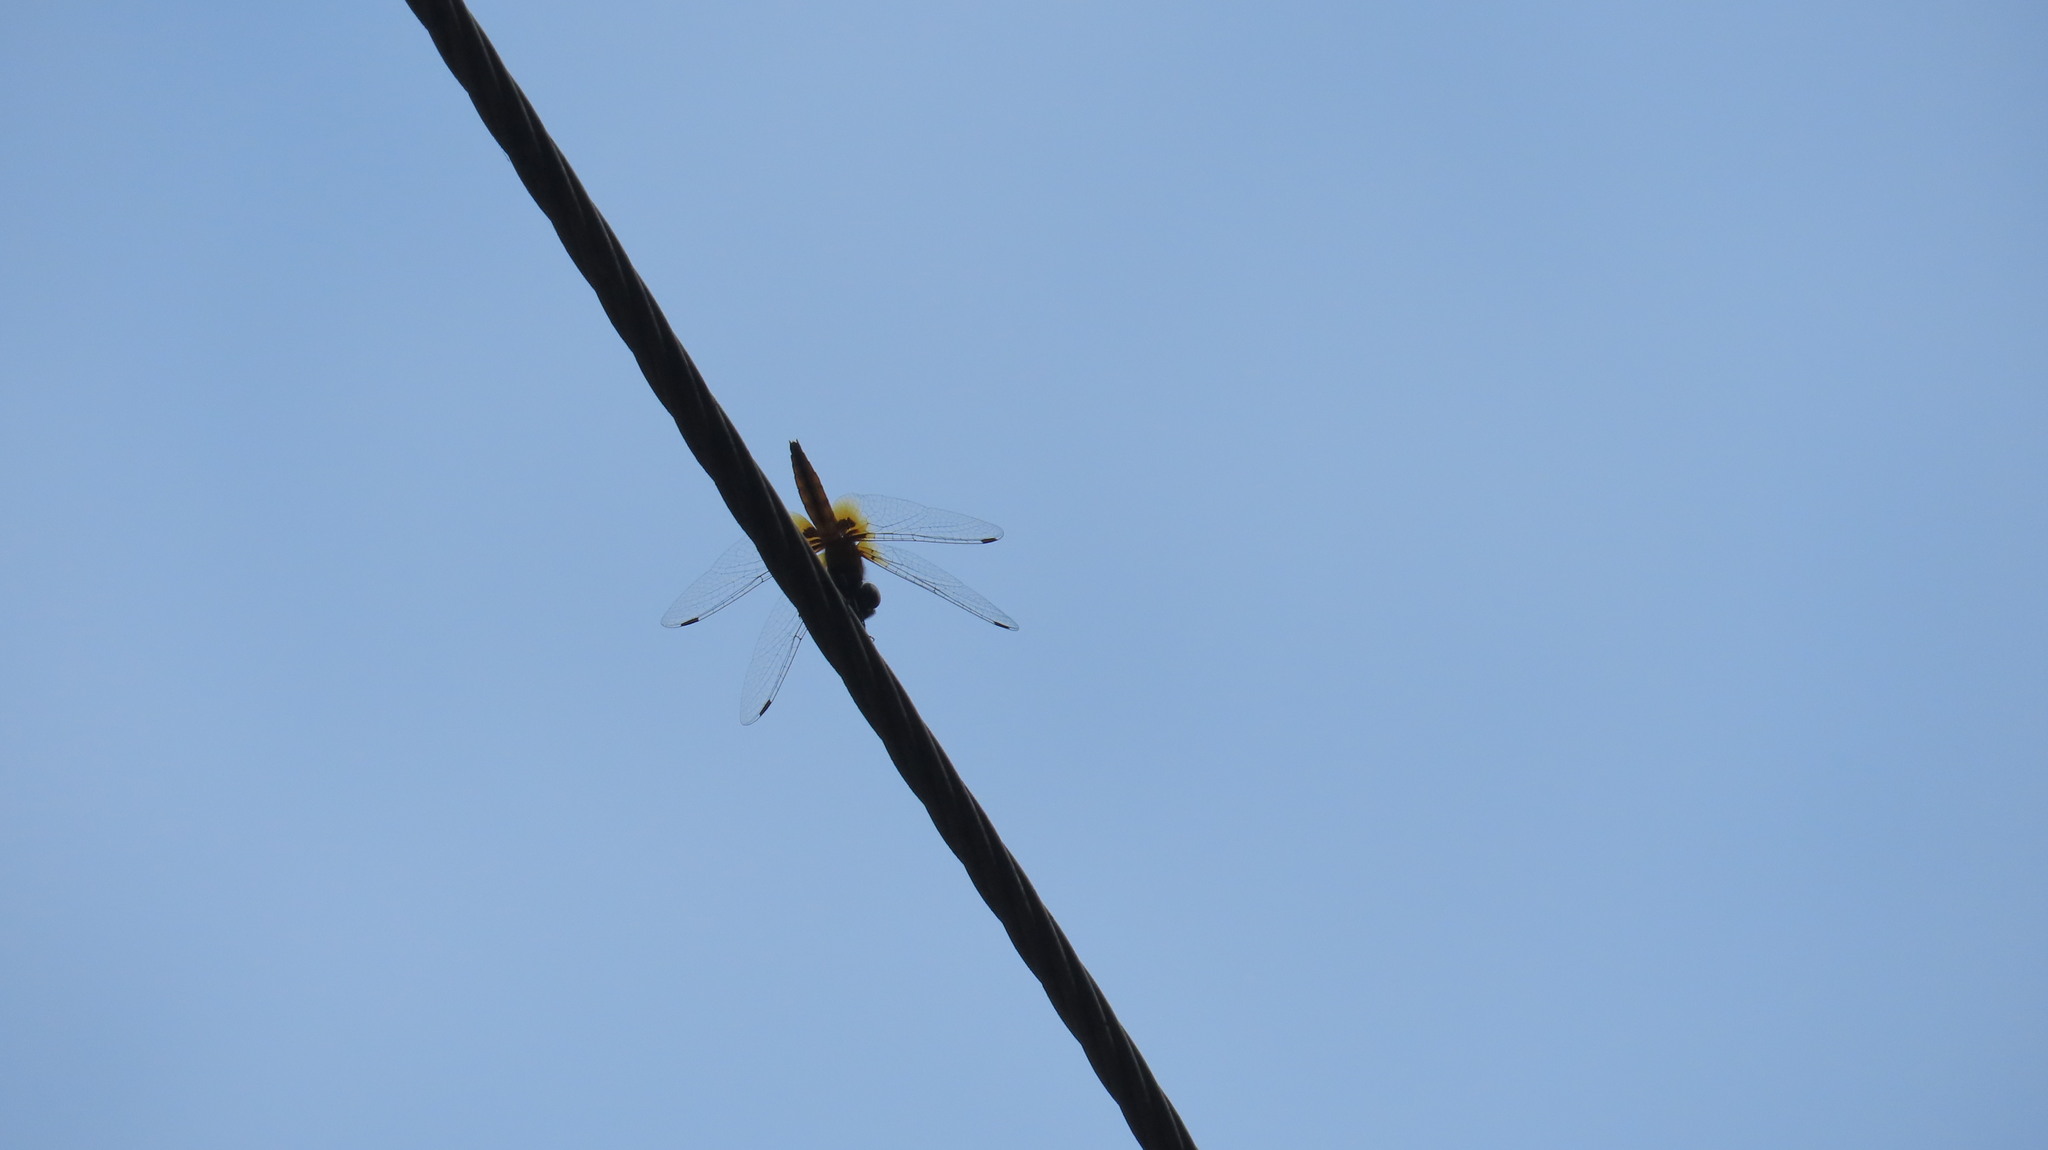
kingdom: Animalia
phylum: Arthropoda
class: Insecta
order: Odonata
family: Libellulidae
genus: Aethriamanta
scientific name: Aethriamanta brevipennis
